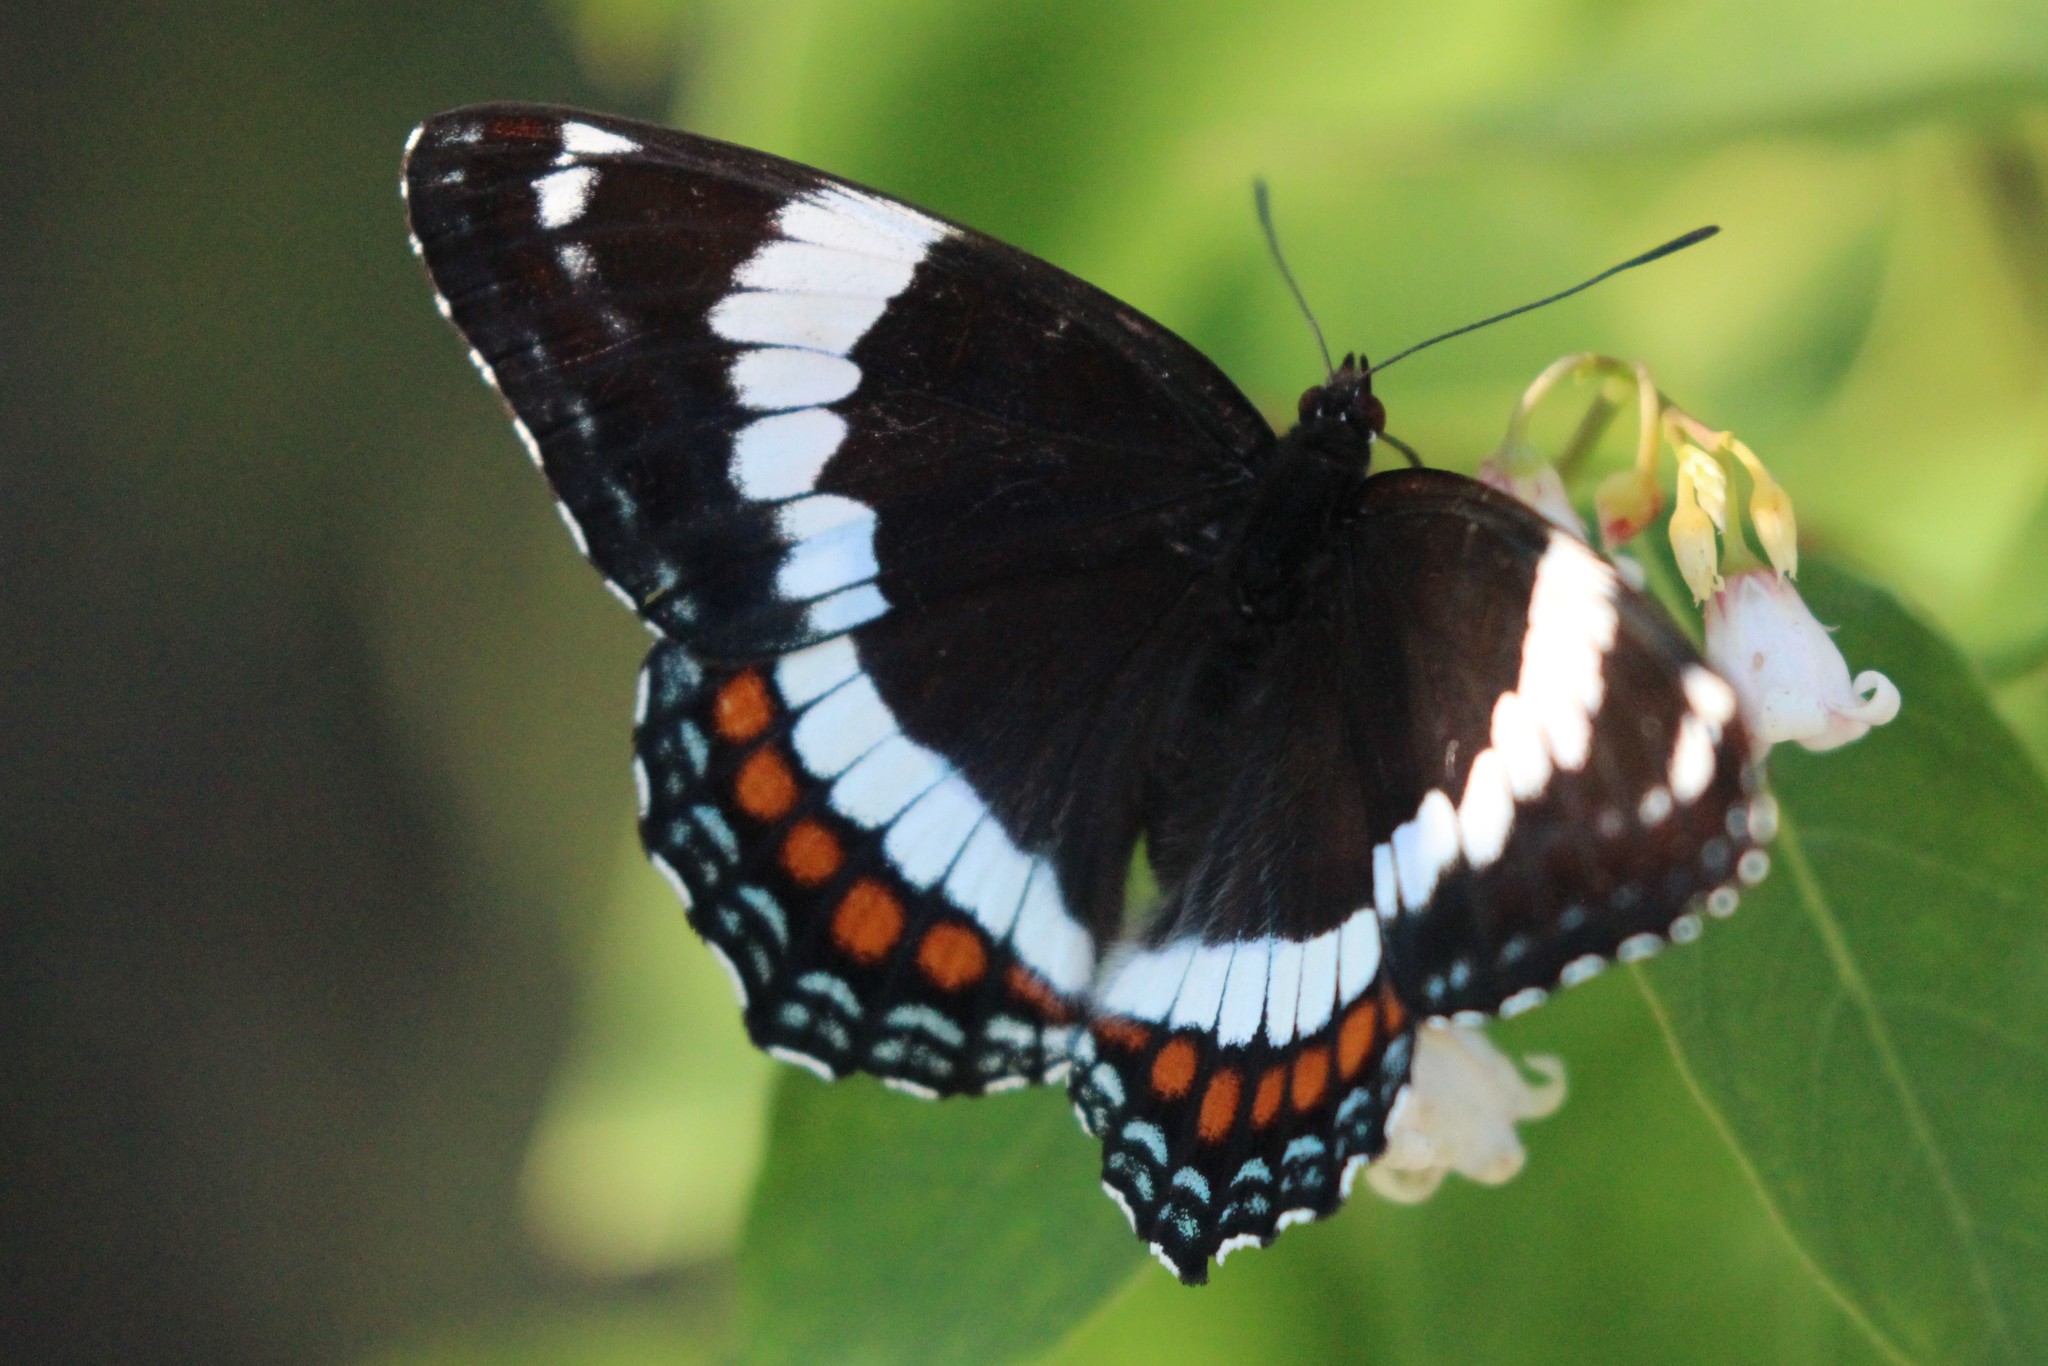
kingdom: Animalia
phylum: Arthropoda
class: Insecta
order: Lepidoptera
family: Nymphalidae
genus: Limenitis
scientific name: Limenitis arthemis
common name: Red-spotted admiral
